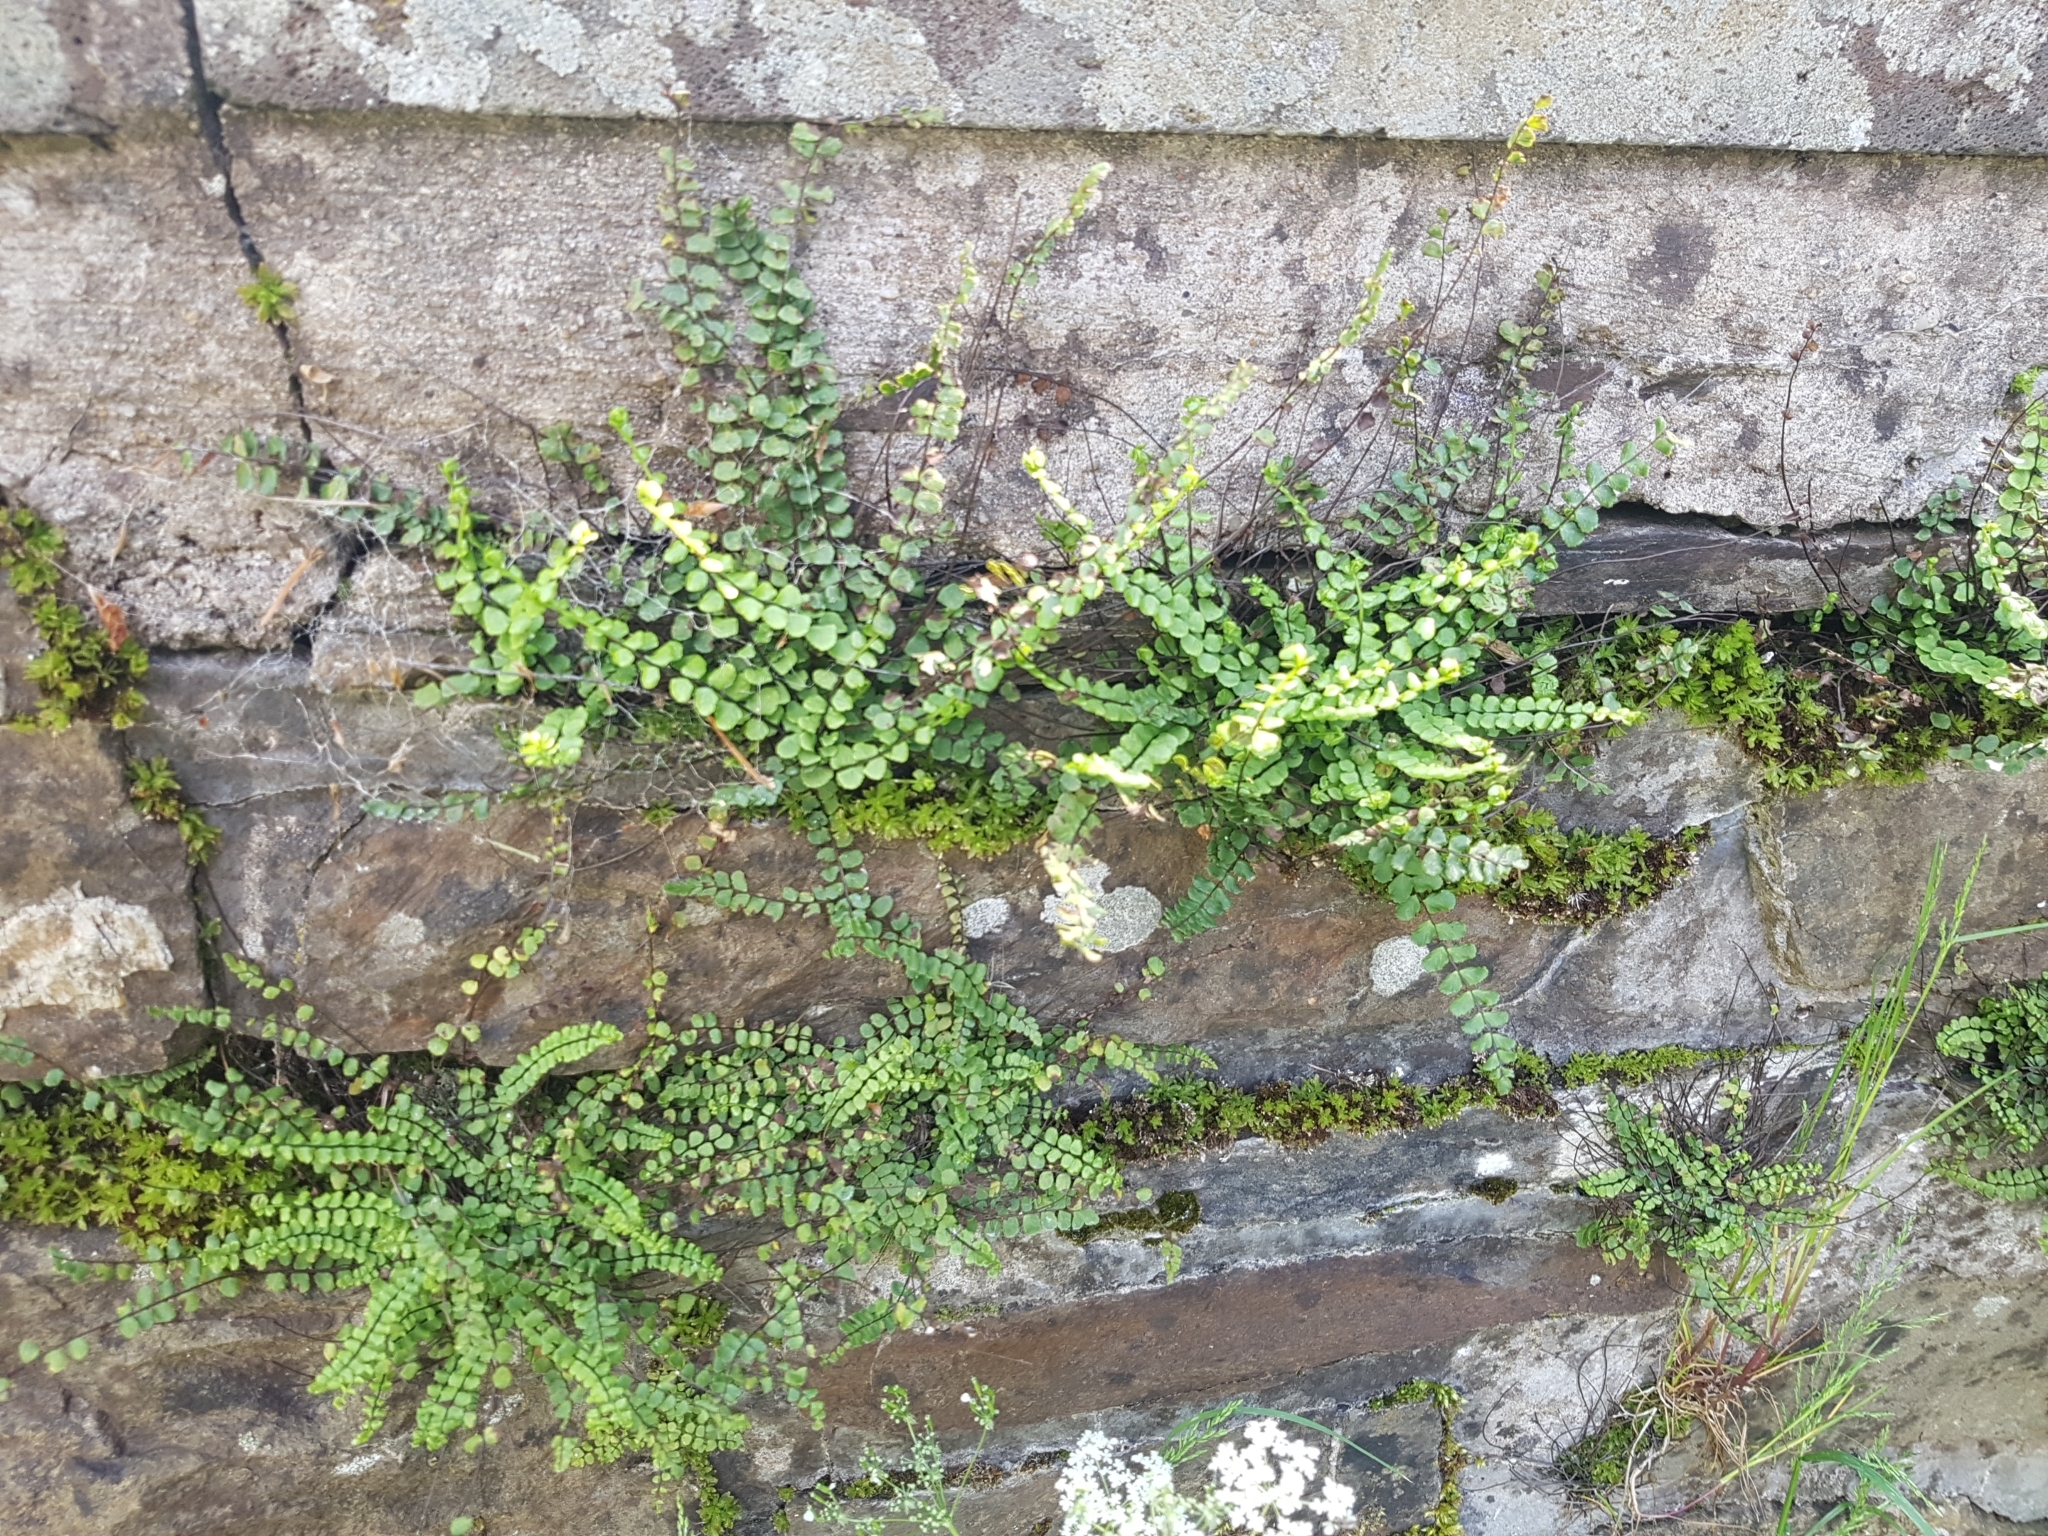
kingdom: Plantae
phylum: Tracheophyta
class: Polypodiopsida
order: Polypodiales
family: Aspleniaceae
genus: Asplenium
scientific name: Asplenium trichomanes
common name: Maidenhair spleenwort
